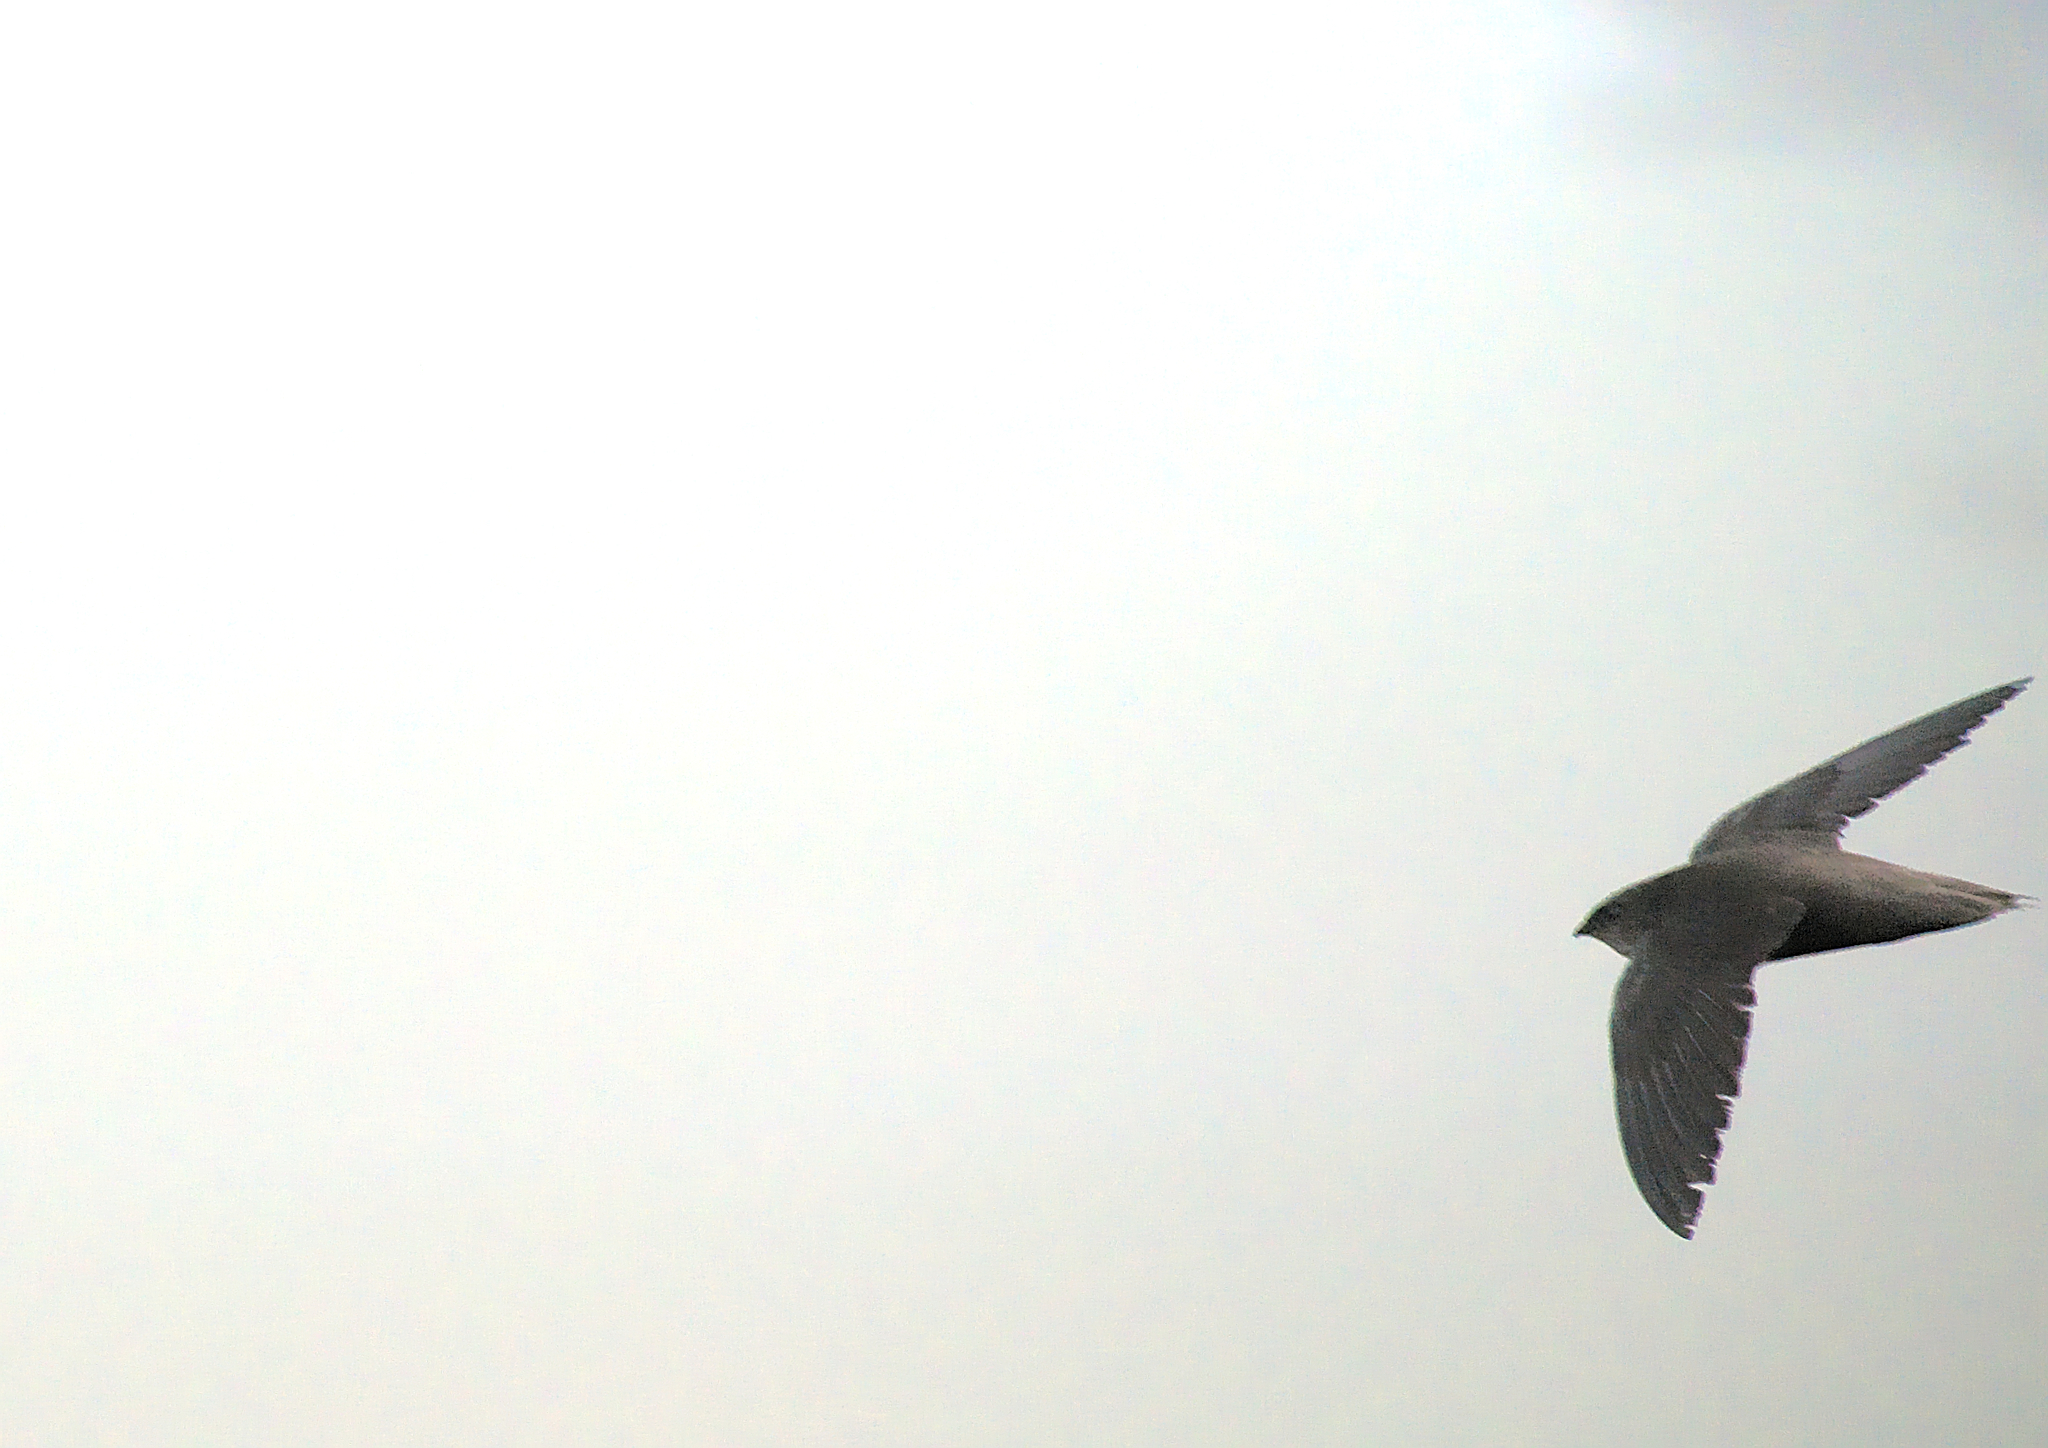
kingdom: Animalia
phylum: Chordata
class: Aves
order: Apodiformes
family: Apodidae
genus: Chaetura
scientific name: Chaetura pelagica
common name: Chimney swift
